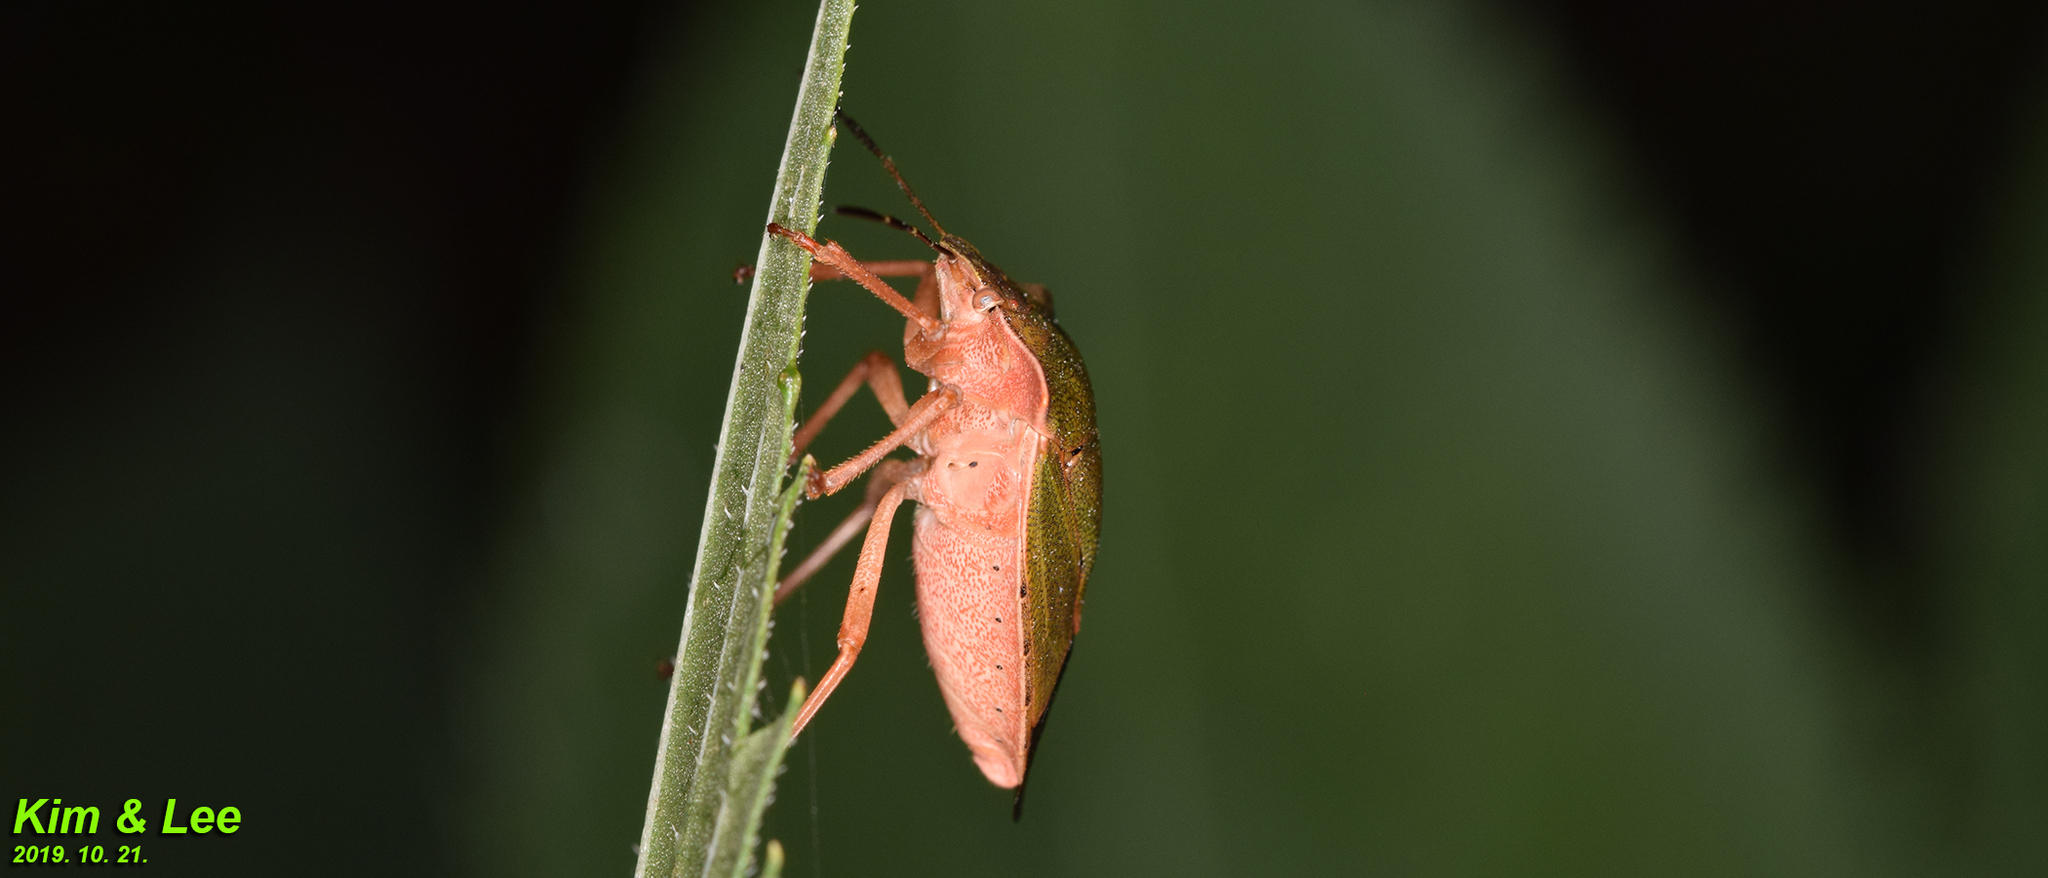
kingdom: Animalia
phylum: Arthropoda
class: Insecta
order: Hemiptera
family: Pentatomidae
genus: Palomena
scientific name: Palomena
